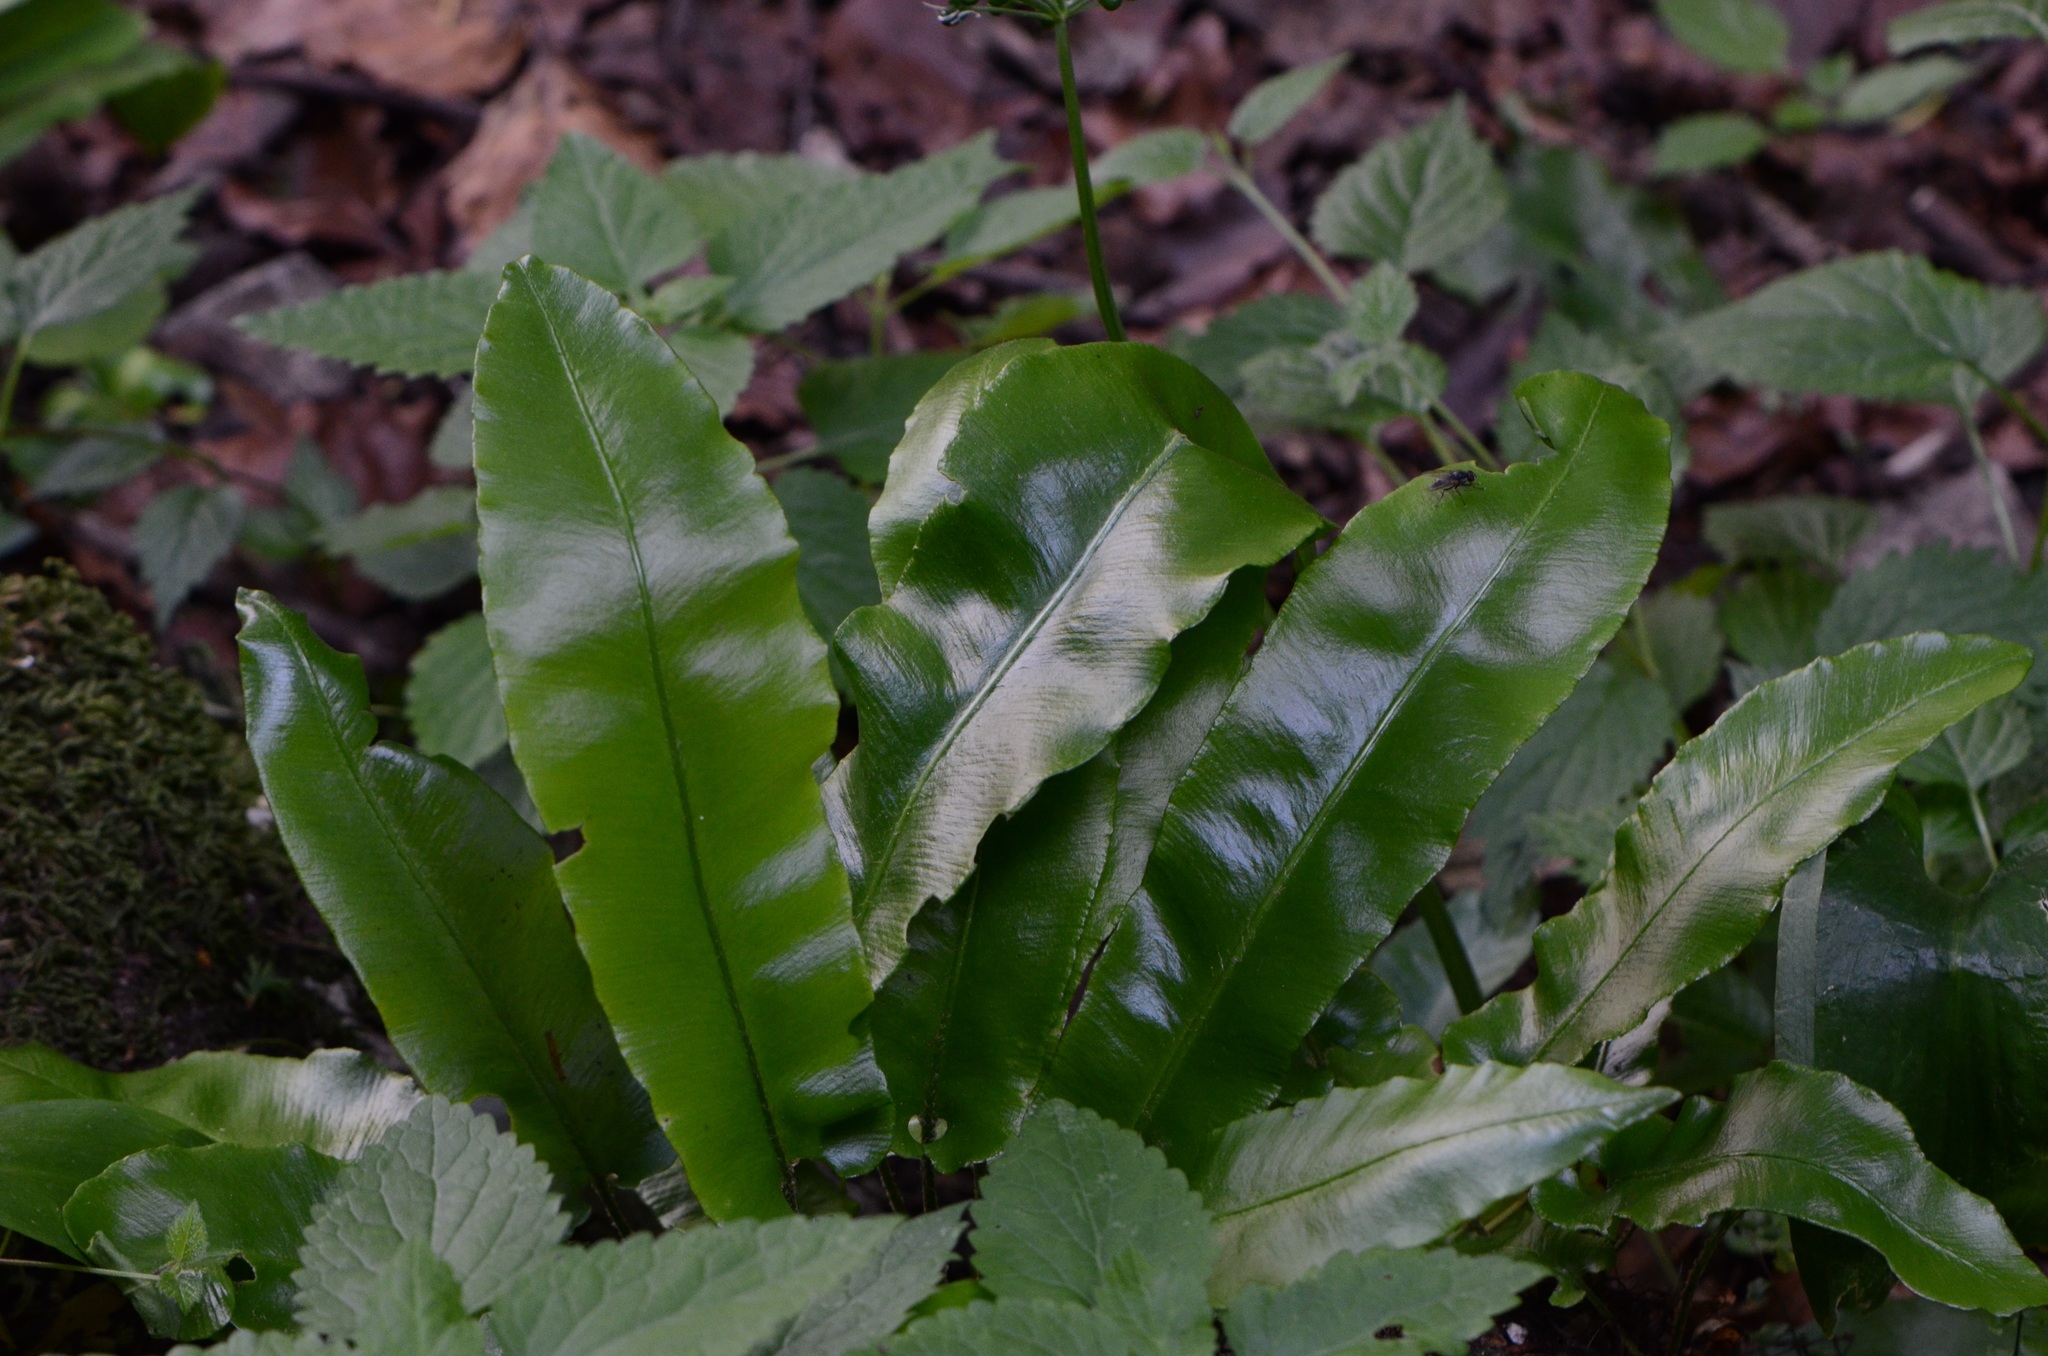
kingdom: Plantae
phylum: Tracheophyta
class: Polypodiopsida
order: Polypodiales
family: Aspleniaceae
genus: Asplenium
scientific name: Asplenium scolopendrium
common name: Hart's-tongue fern
